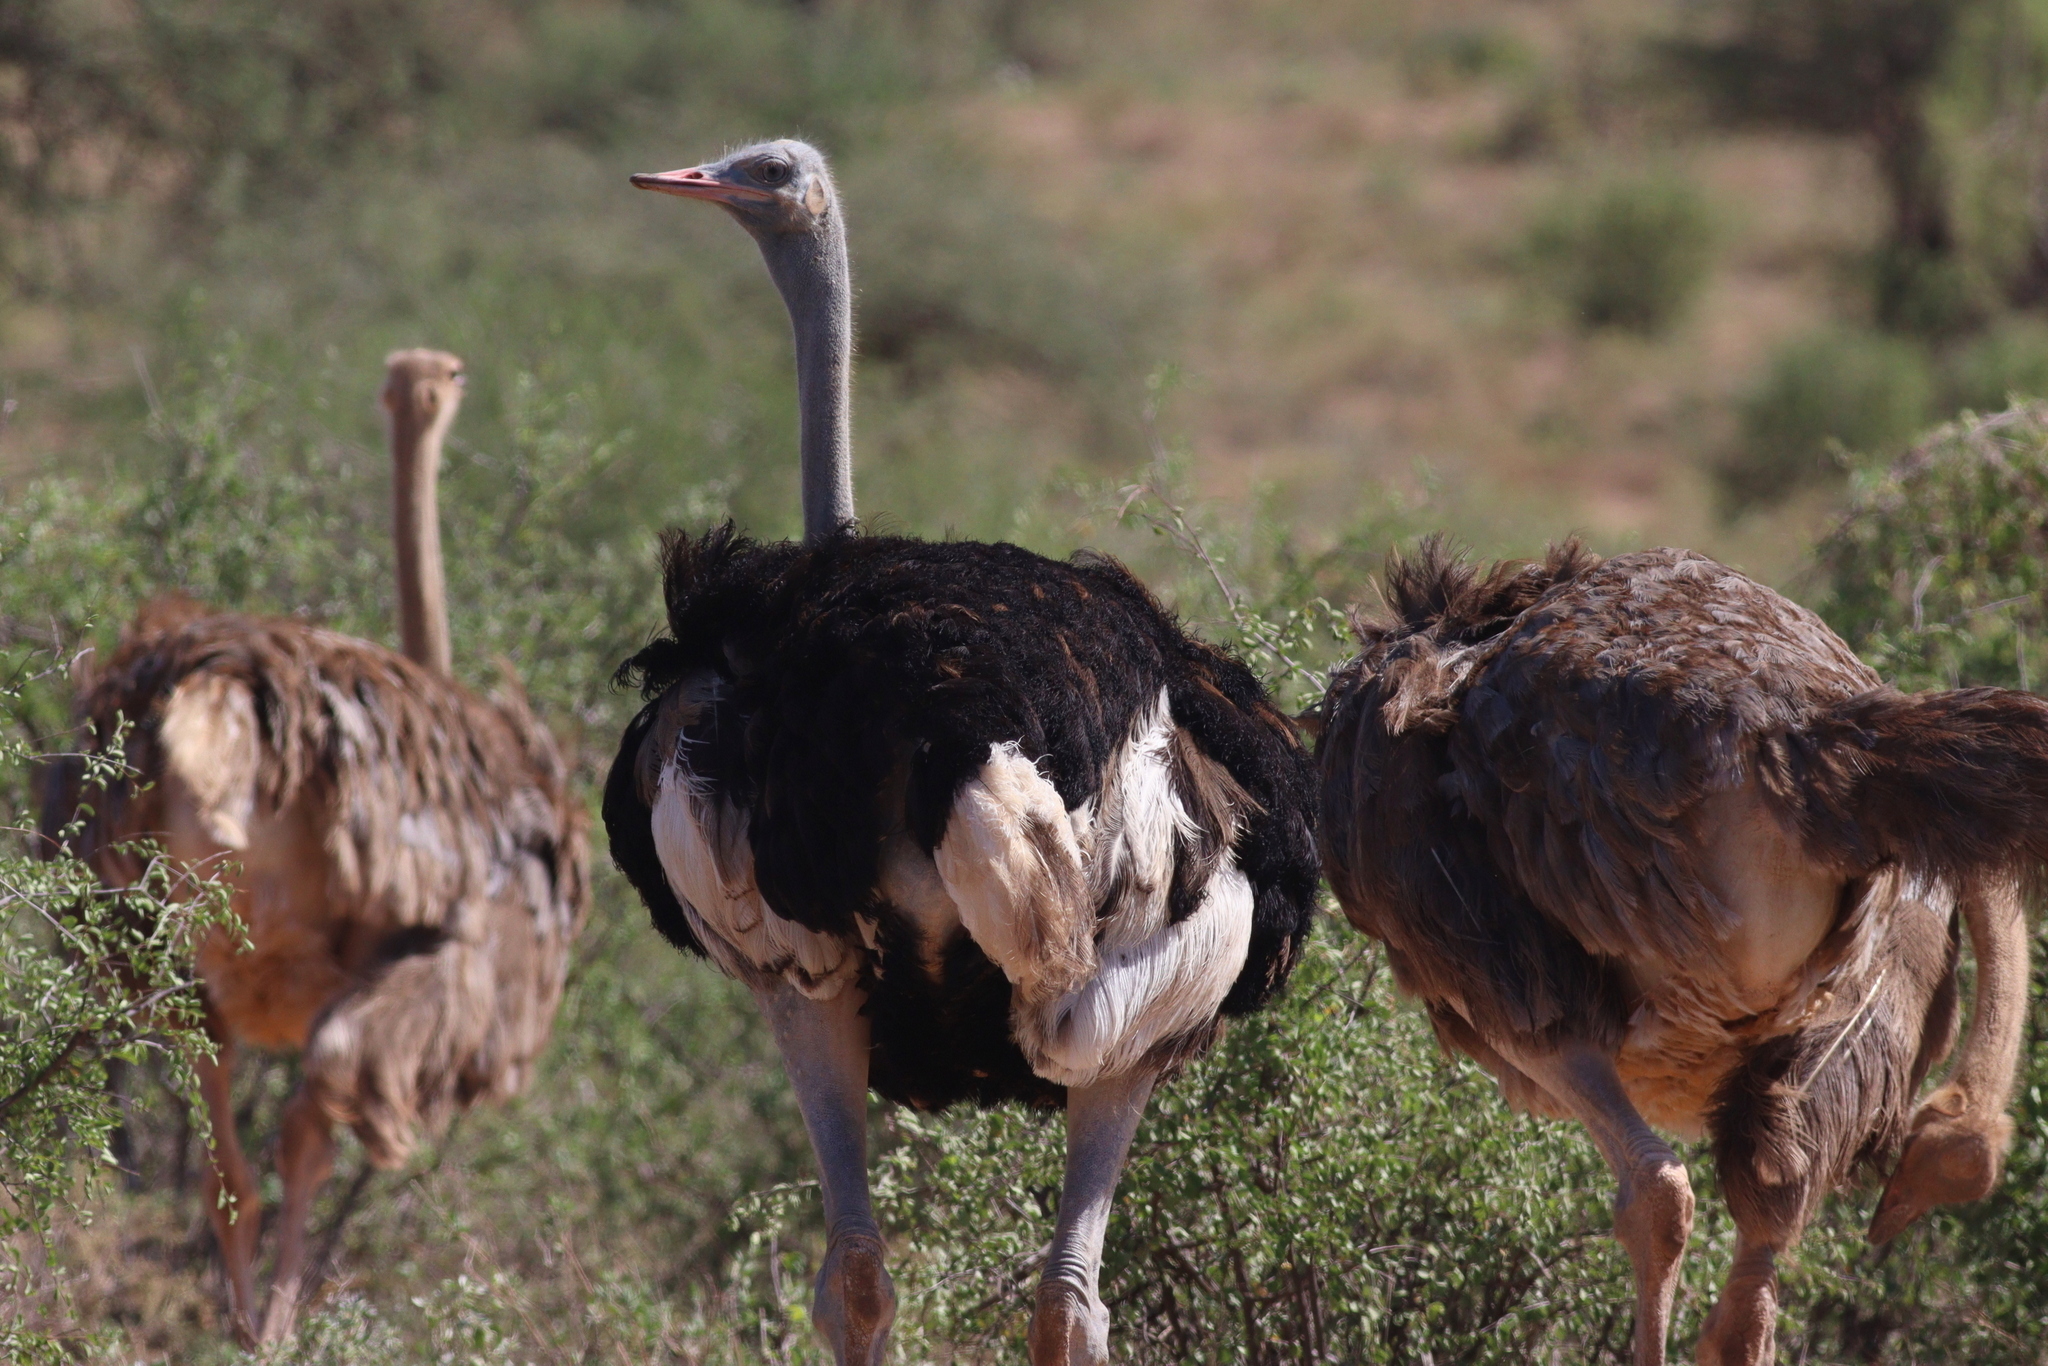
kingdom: Animalia
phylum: Chordata
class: Aves
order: Struthioniformes
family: Struthionidae
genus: Struthio
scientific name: Struthio molybdophanes
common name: Somali ostrich
